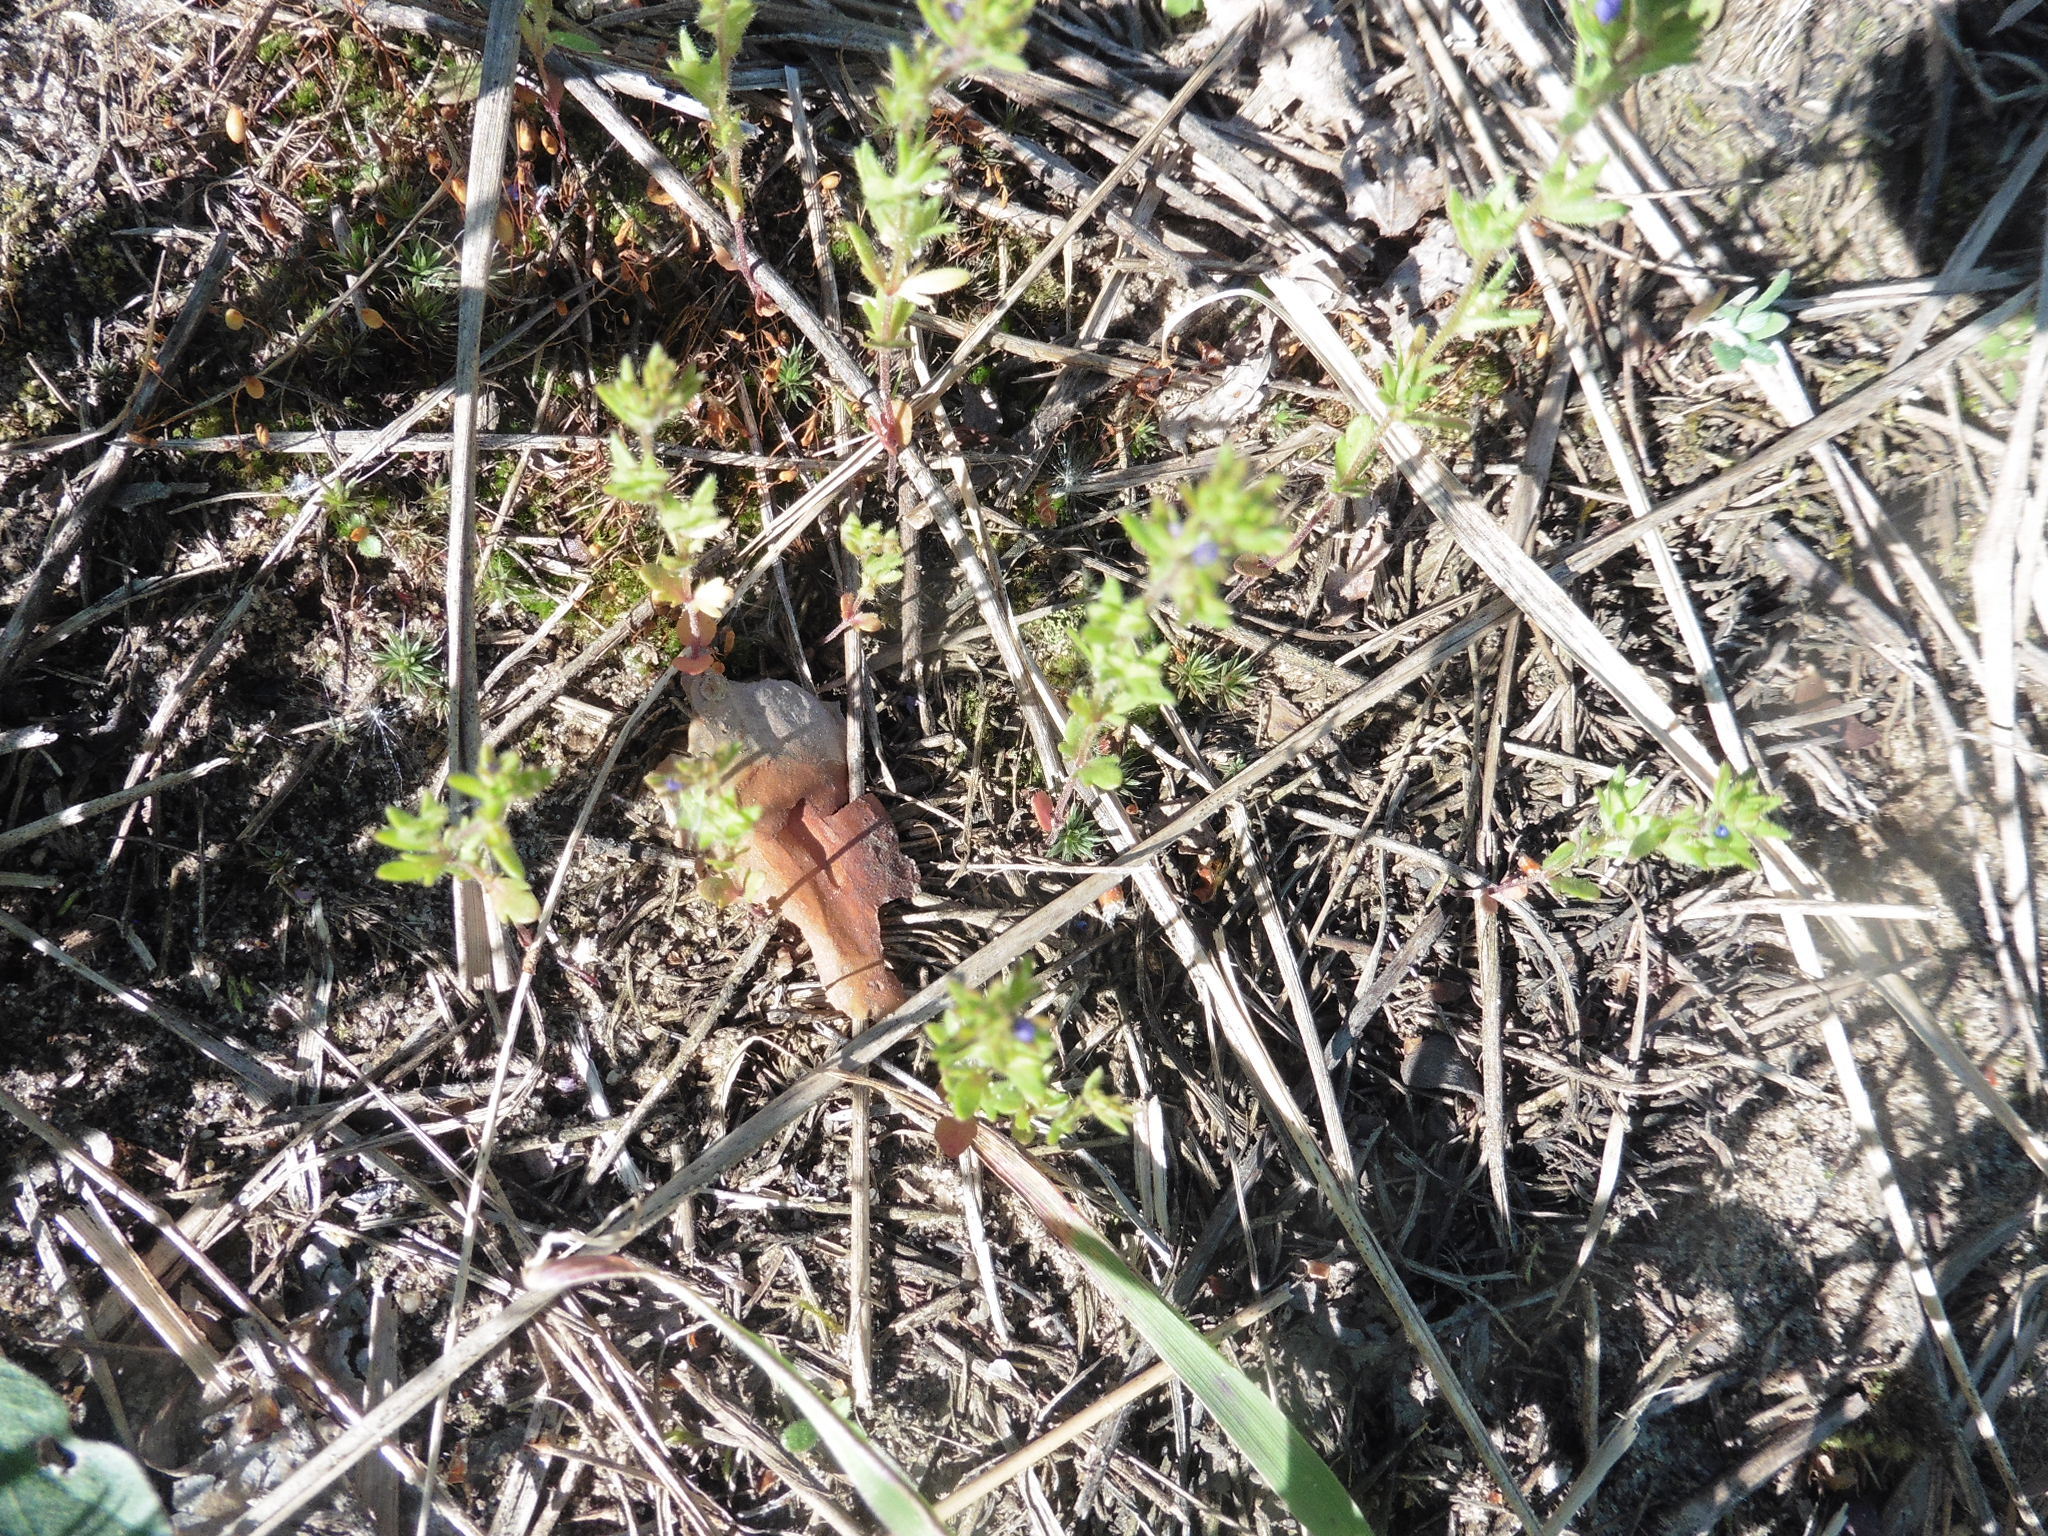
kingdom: Plantae
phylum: Tracheophyta
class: Magnoliopsida
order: Lamiales
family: Plantaginaceae
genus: Veronica
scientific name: Veronica verna
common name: Spring speedwell
